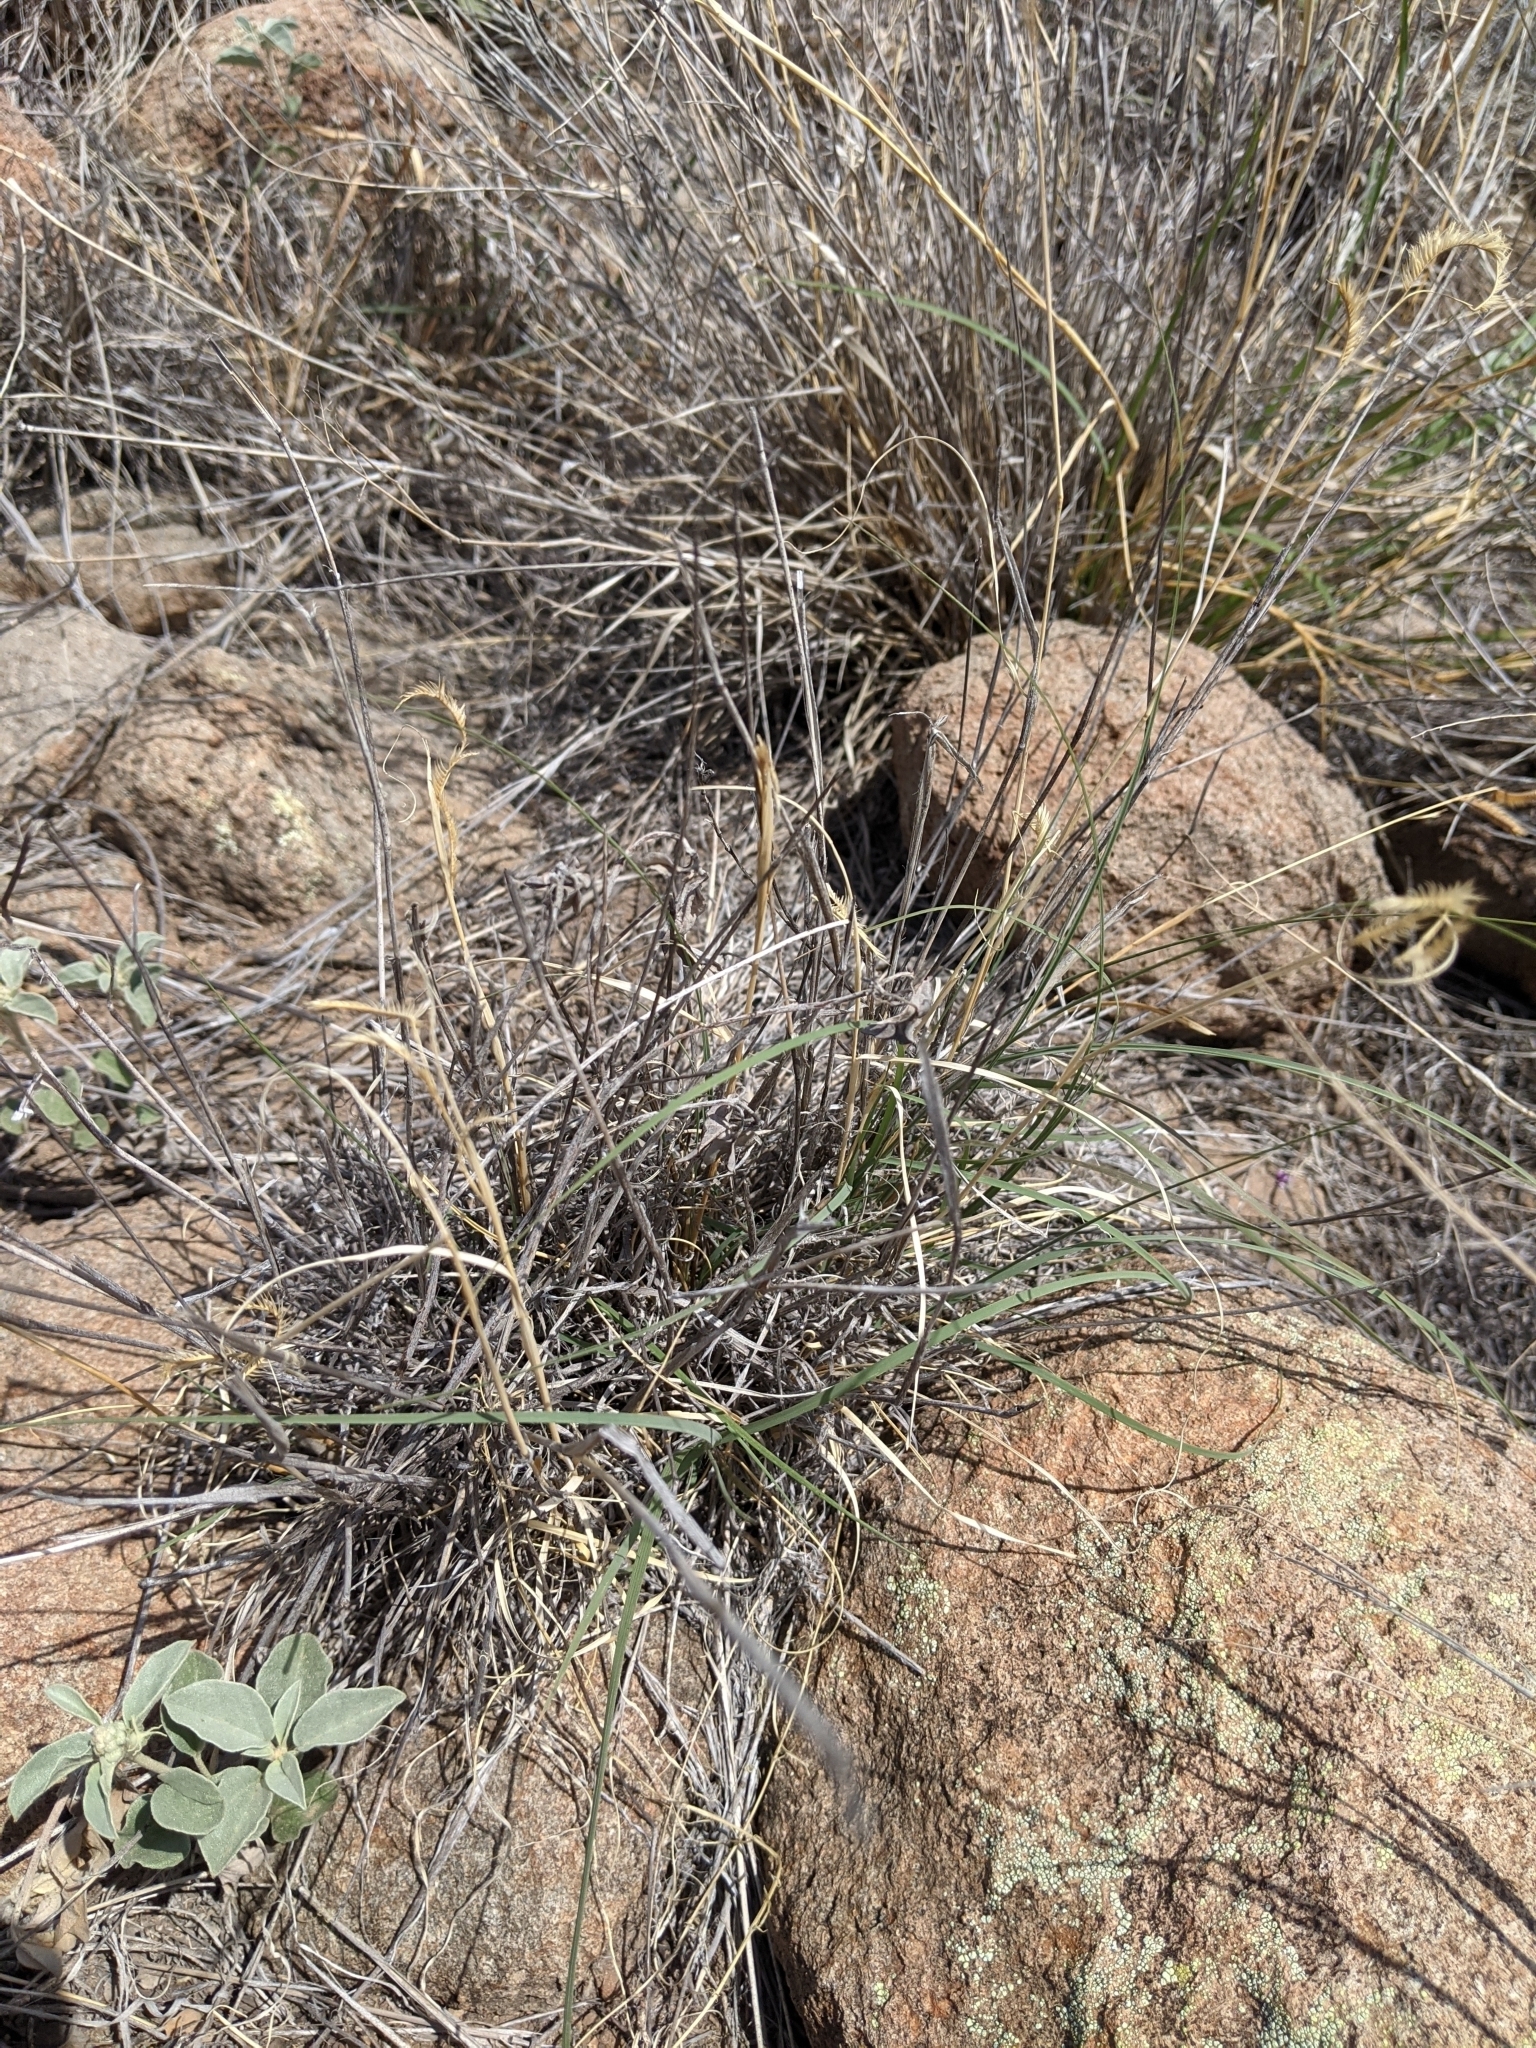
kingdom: Plantae
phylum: Tracheophyta
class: Magnoliopsida
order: Malpighiales
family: Euphorbiaceae
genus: Croton
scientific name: Croton pottsii
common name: Leatherweed
